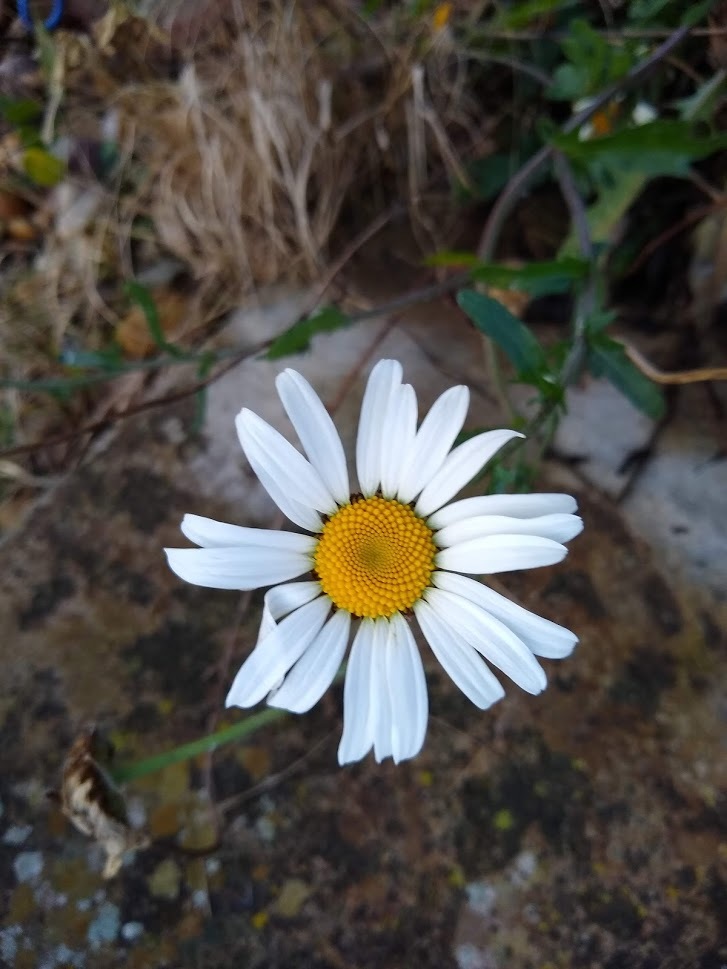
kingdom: Plantae
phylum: Tracheophyta
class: Magnoliopsida
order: Asterales
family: Asteraceae
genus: Leucanthemum
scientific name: Leucanthemum vulgare
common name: Oxeye daisy
